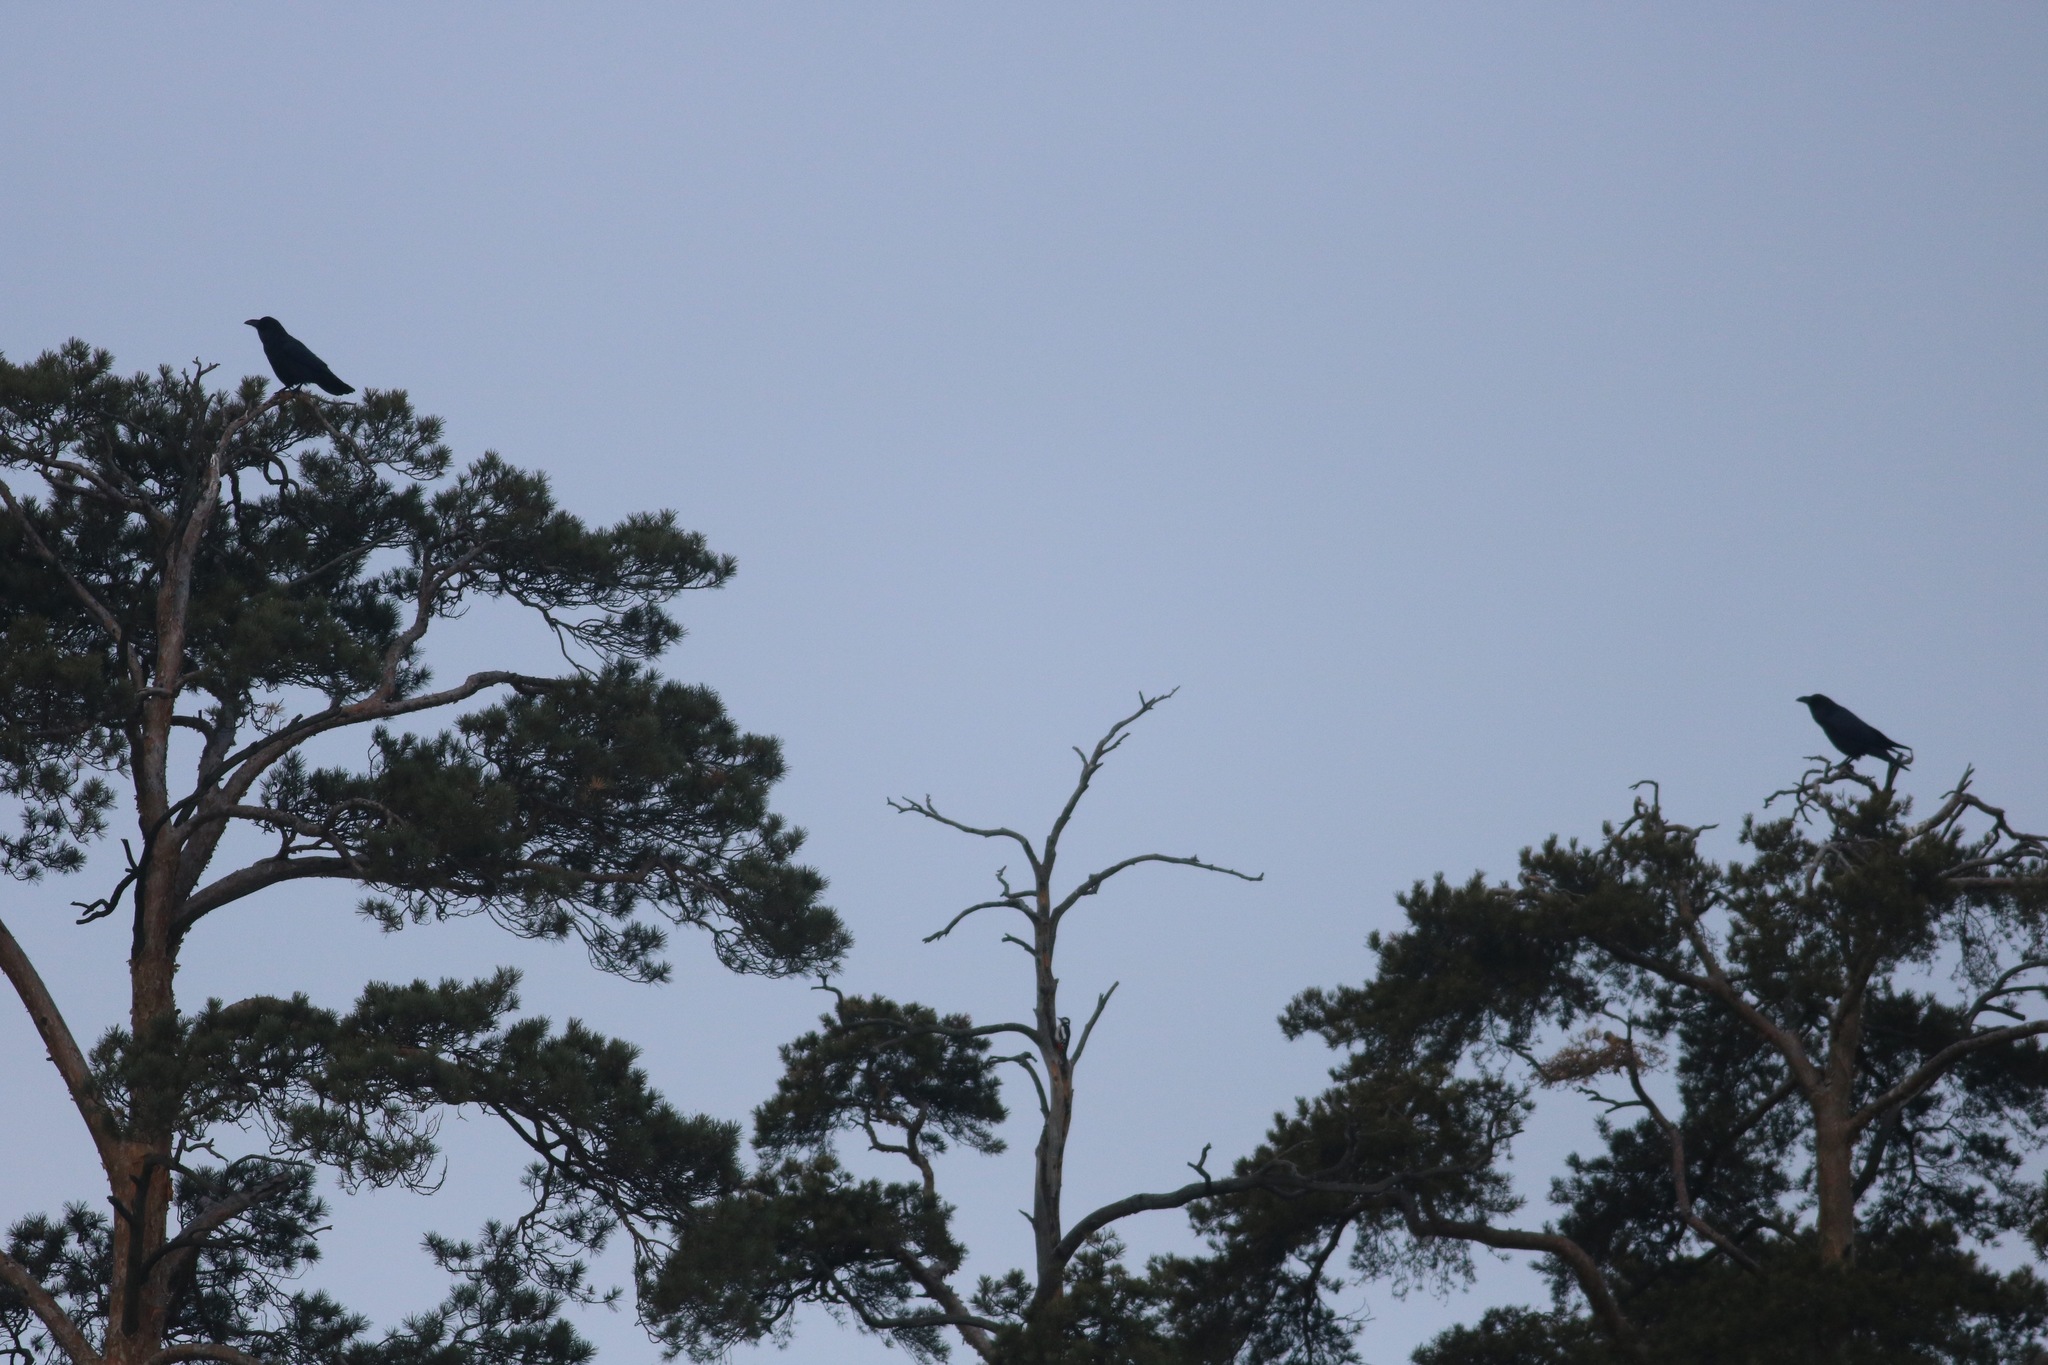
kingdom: Animalia
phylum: Chordata
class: Aves
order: Passeriformes
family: Corvidae
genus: Corvus
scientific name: Corvus corax
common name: Common raven
